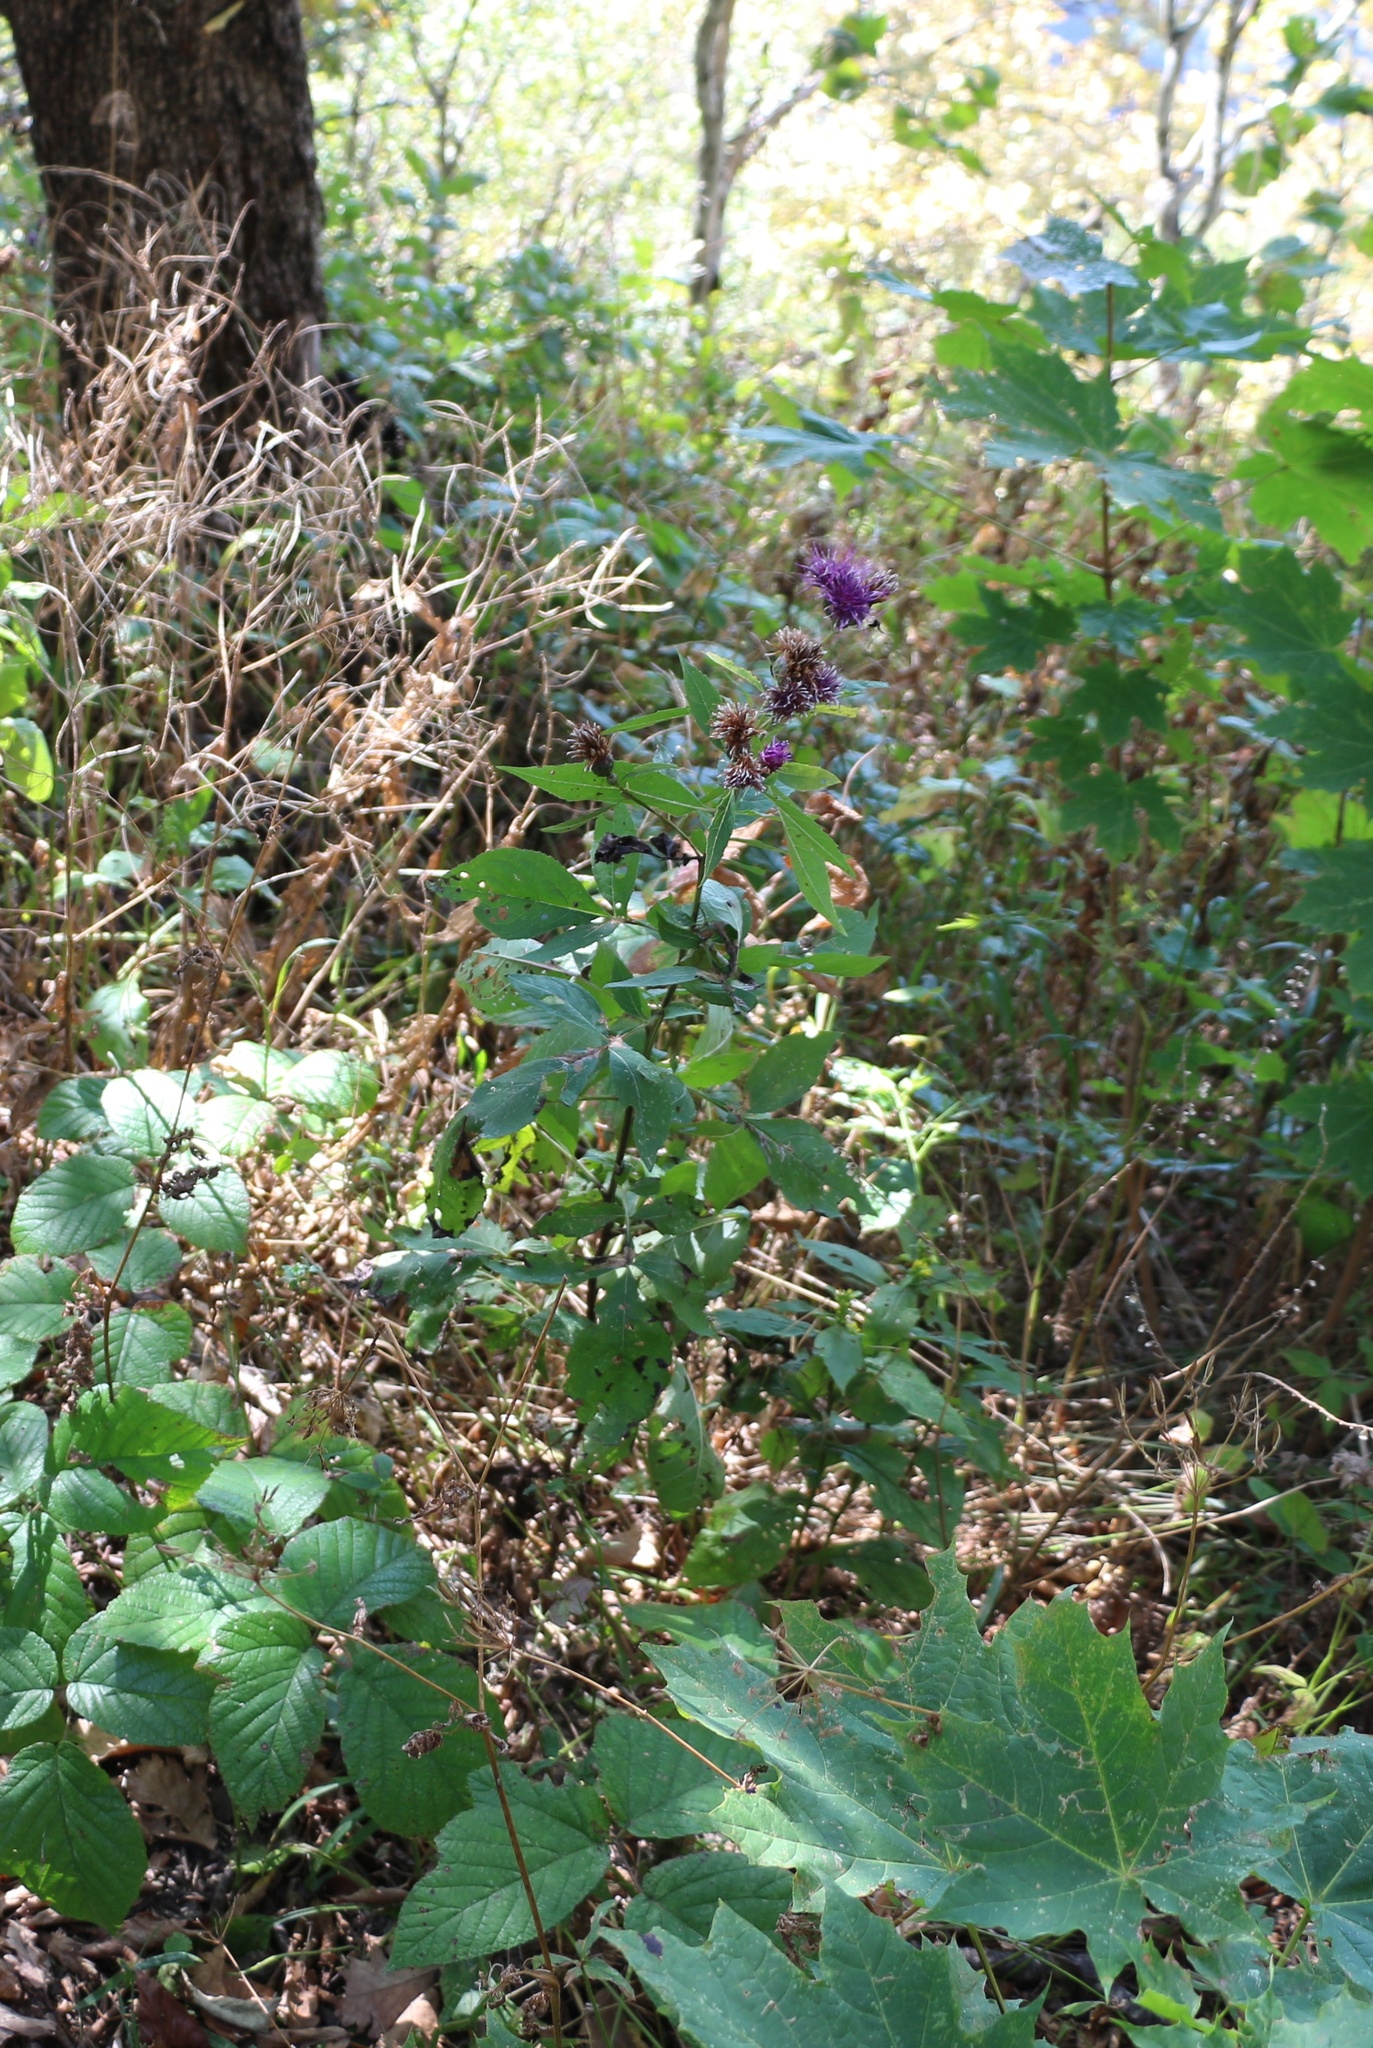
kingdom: Plantae
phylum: Tracheophyta
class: Magnoliopsida
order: Asterales
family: Asteraceae
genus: Klasea
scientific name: Klasea quinquefolia
